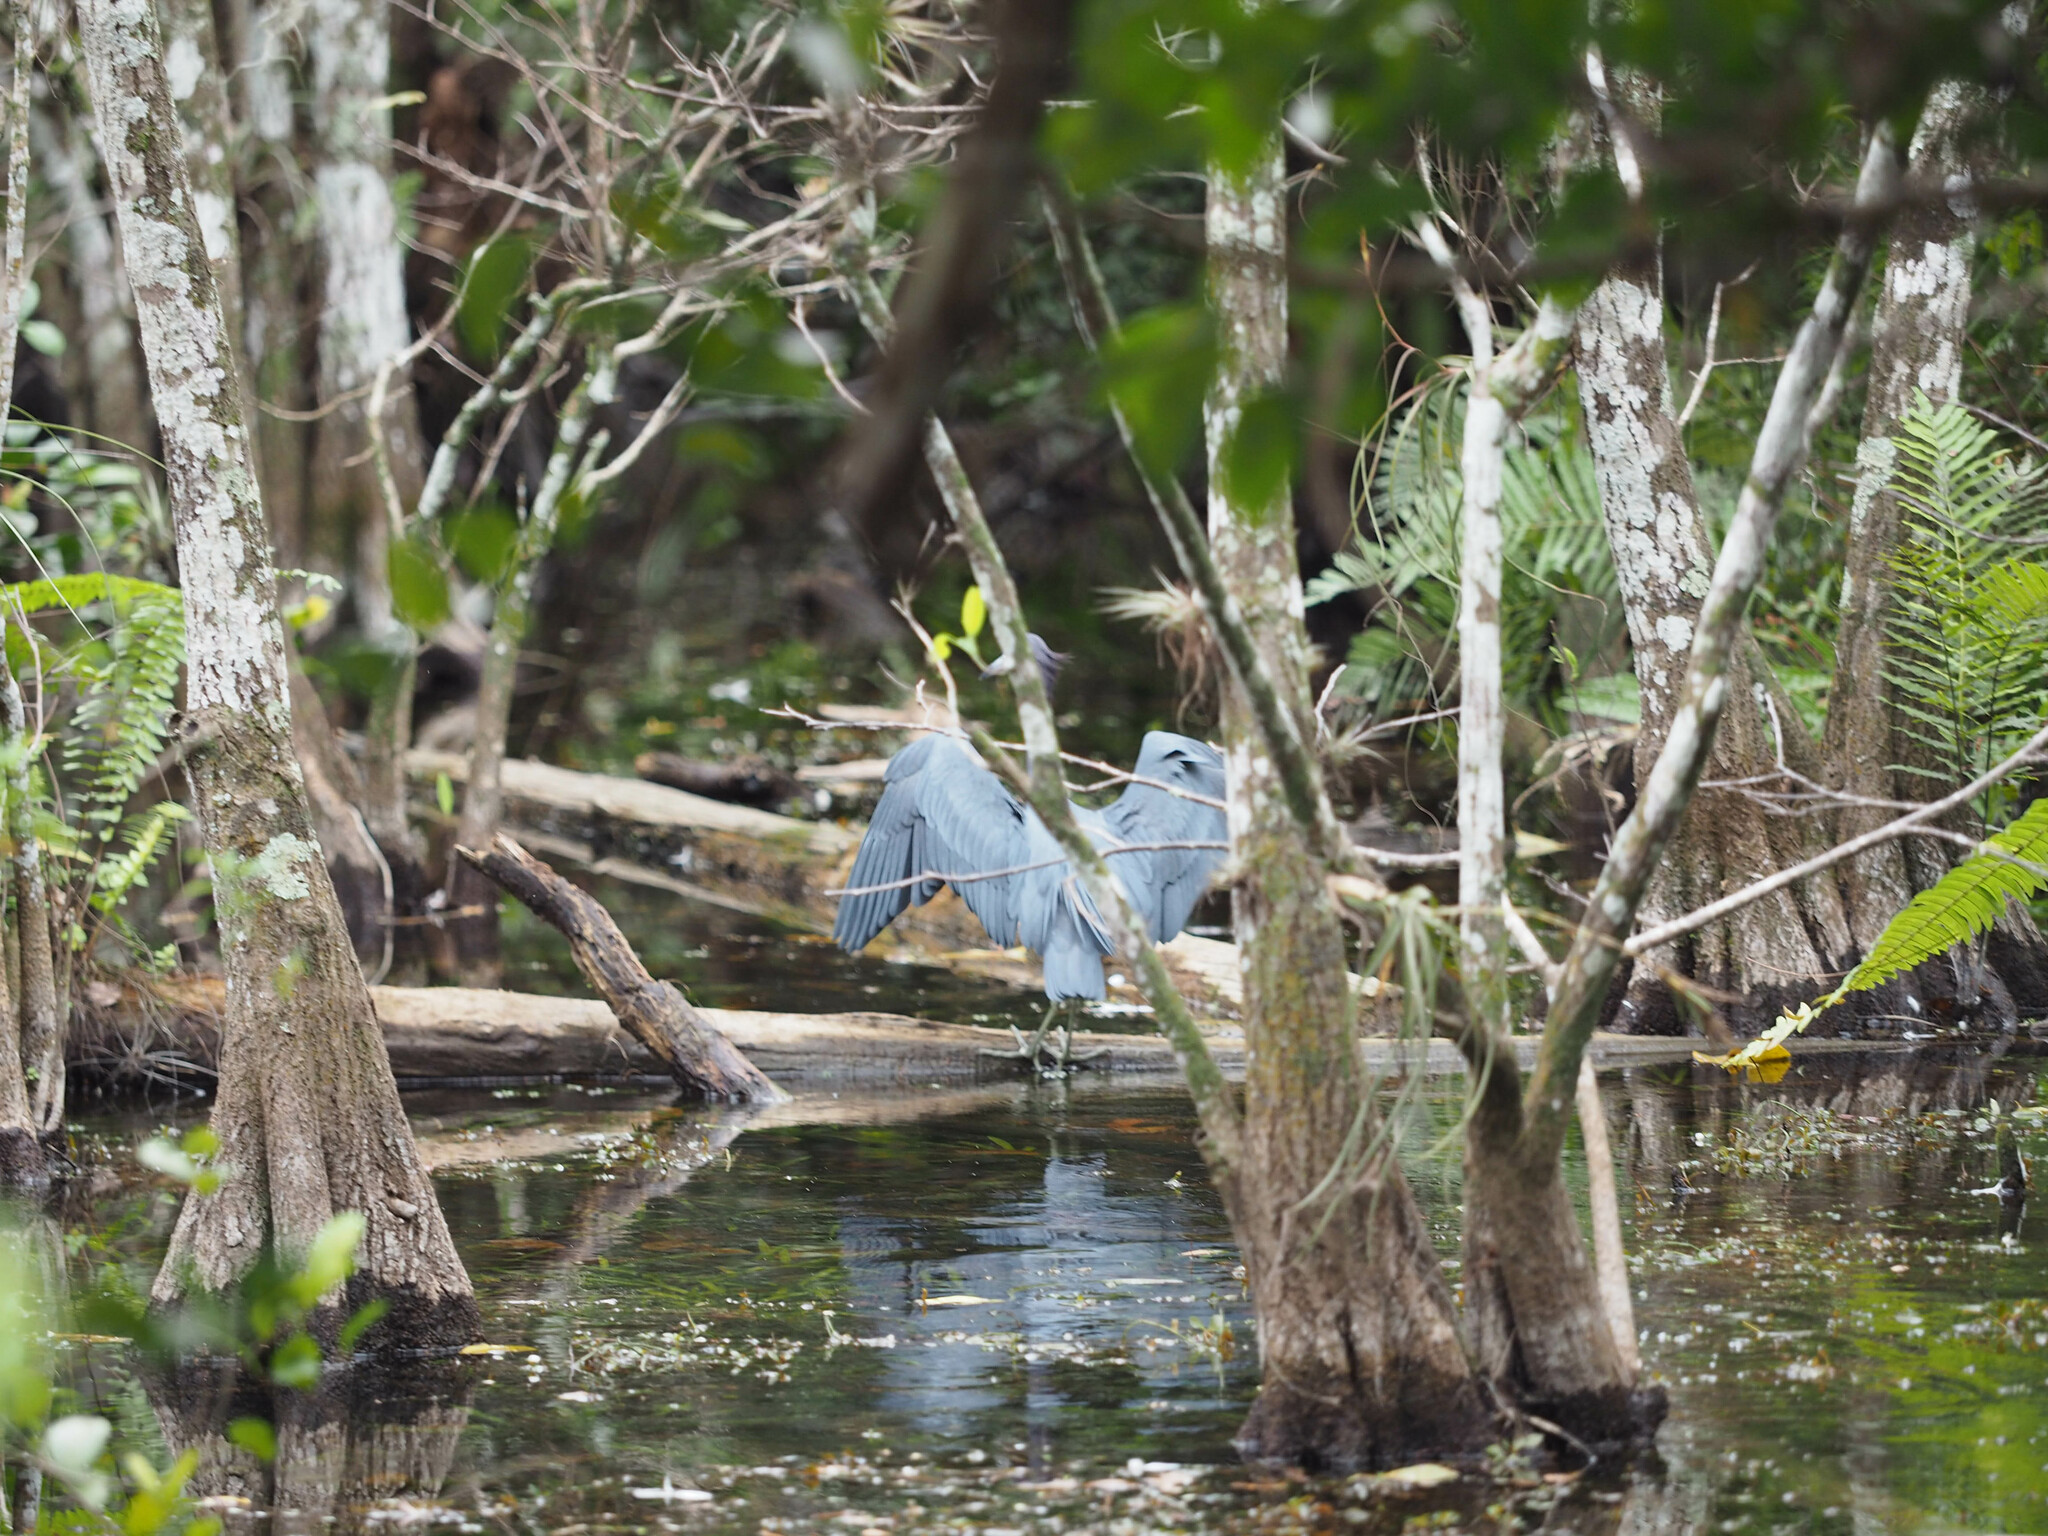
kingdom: Animalia
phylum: Chordata
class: Aves
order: Pelecaniformes
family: Ardeidae
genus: Egretta
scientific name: Egretta caerulea
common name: Little blue heron
